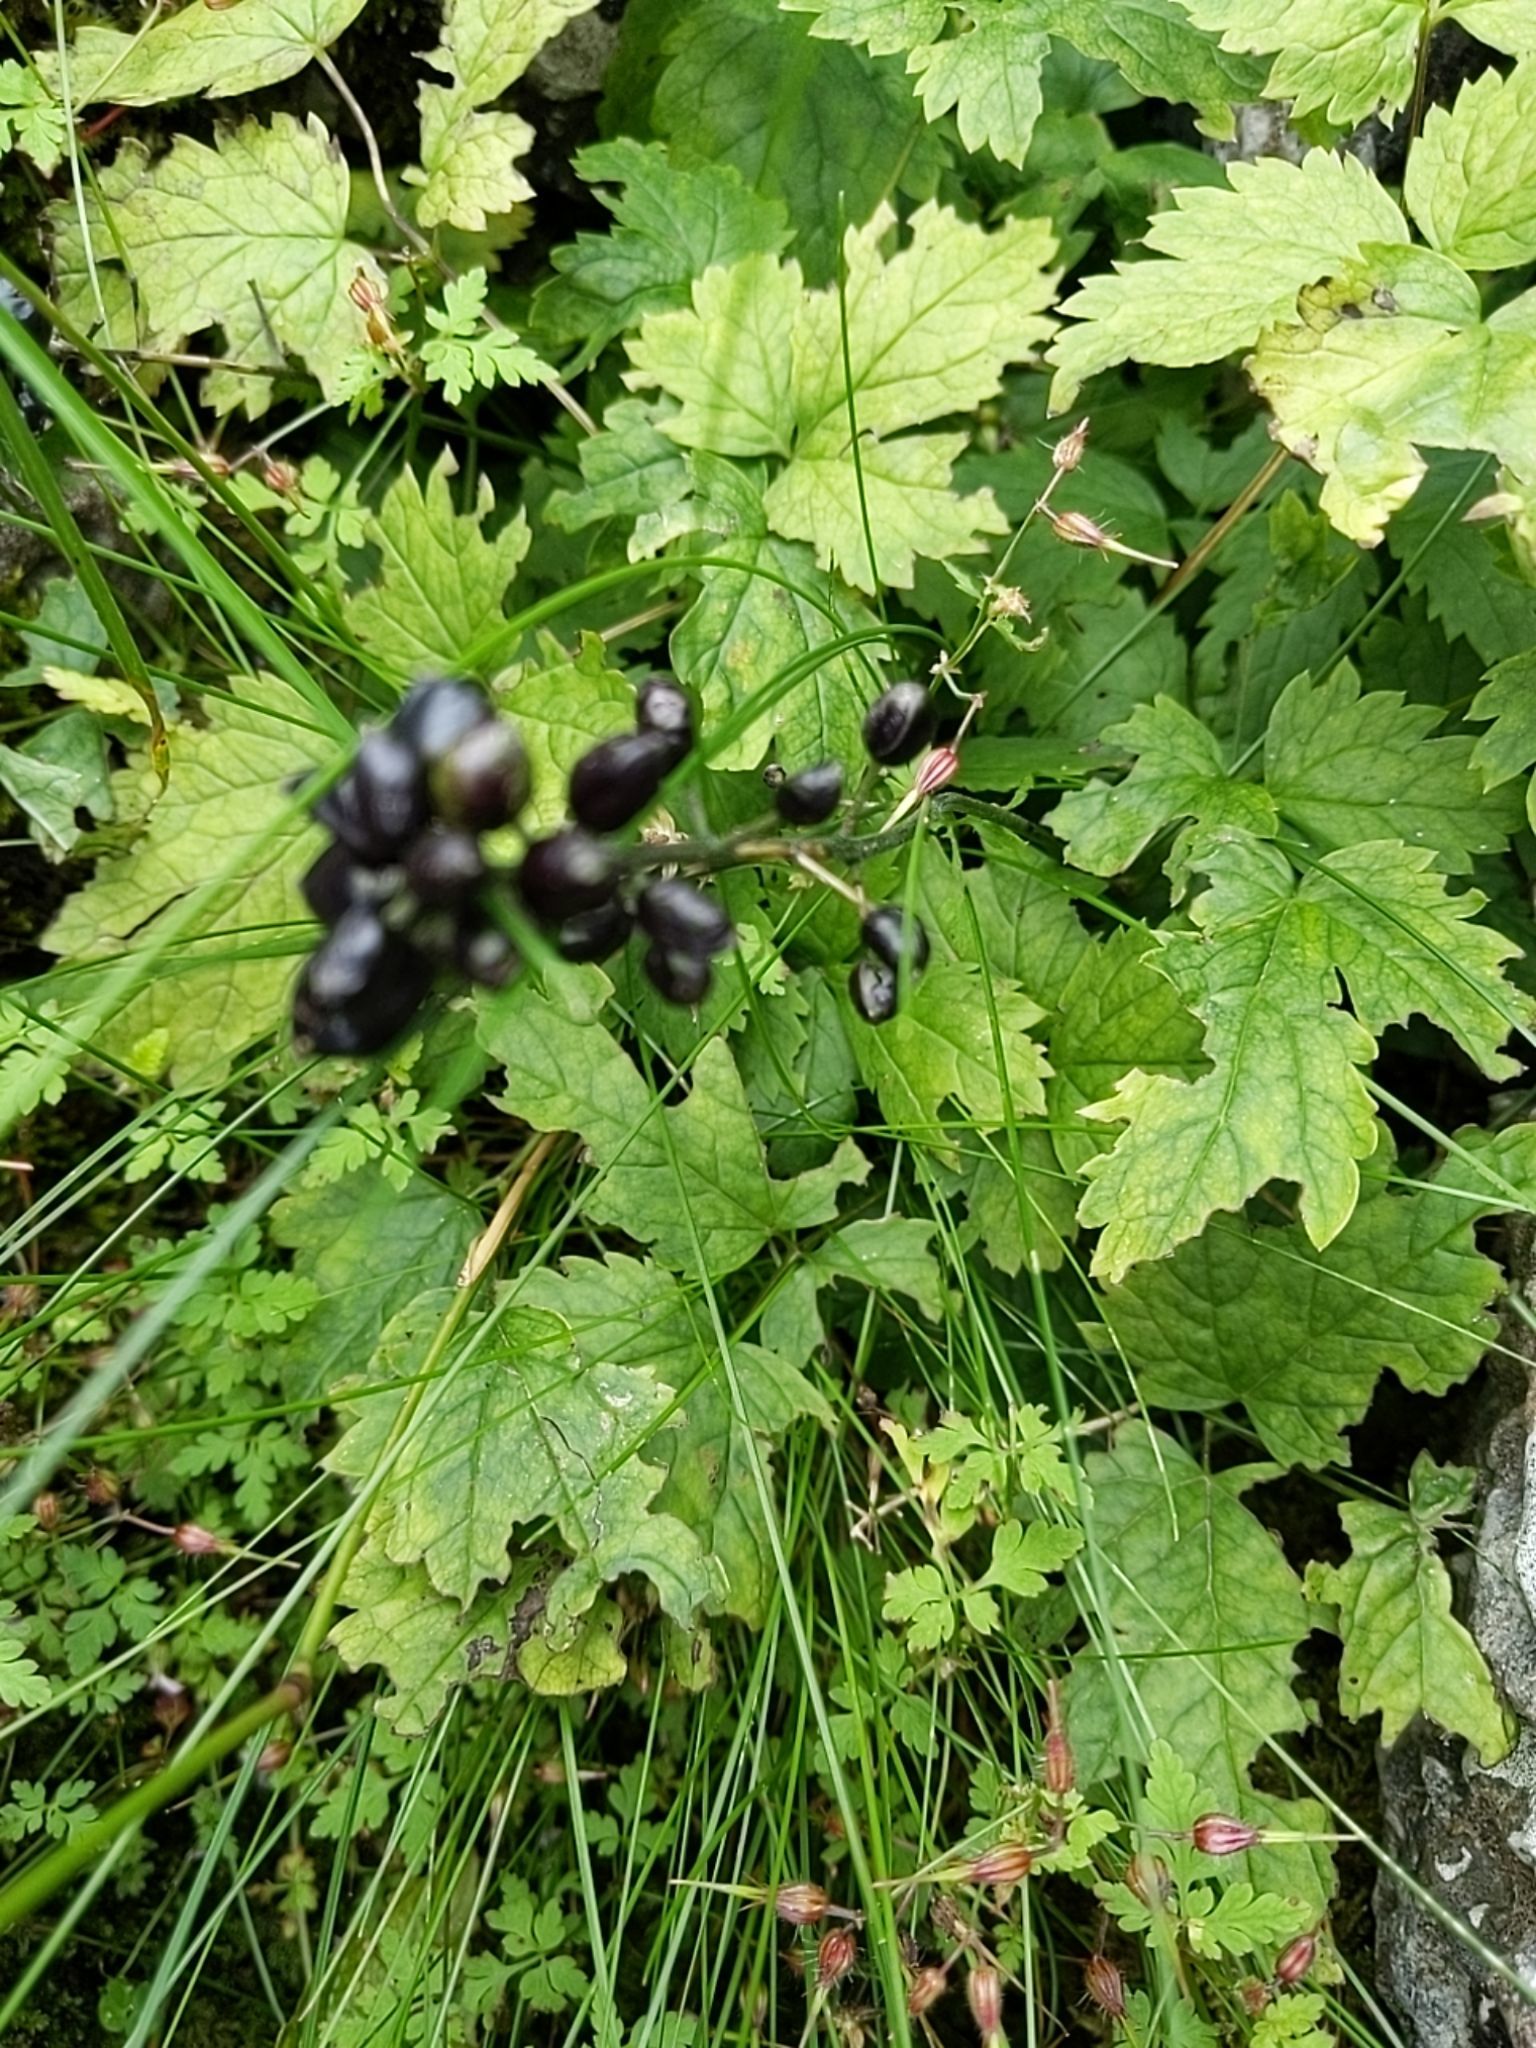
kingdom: Plantae
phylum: Tracheophyta
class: Magnoliopsida
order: Ranunculales
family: Ranunculaceae
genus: Actaea
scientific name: Actaea spicata
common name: Baneberry
